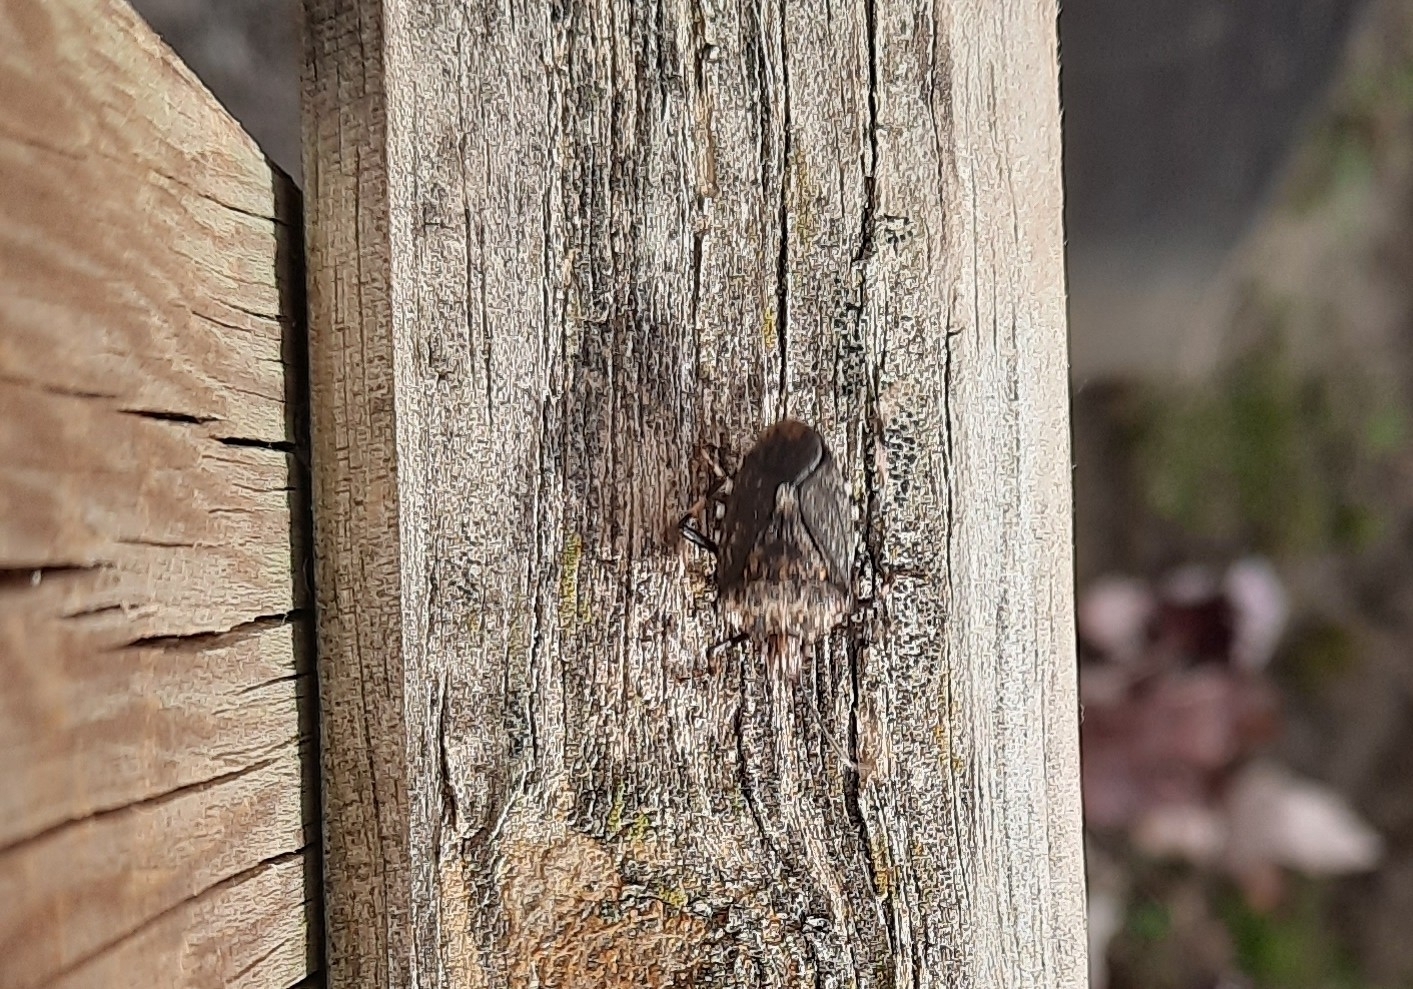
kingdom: Animalia
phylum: Arthropoda
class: Insecta
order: Hemiptera
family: Pentatomidae
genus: Halyomorpha
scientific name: Halyomorpha halys
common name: Brown marmorated stink bug
